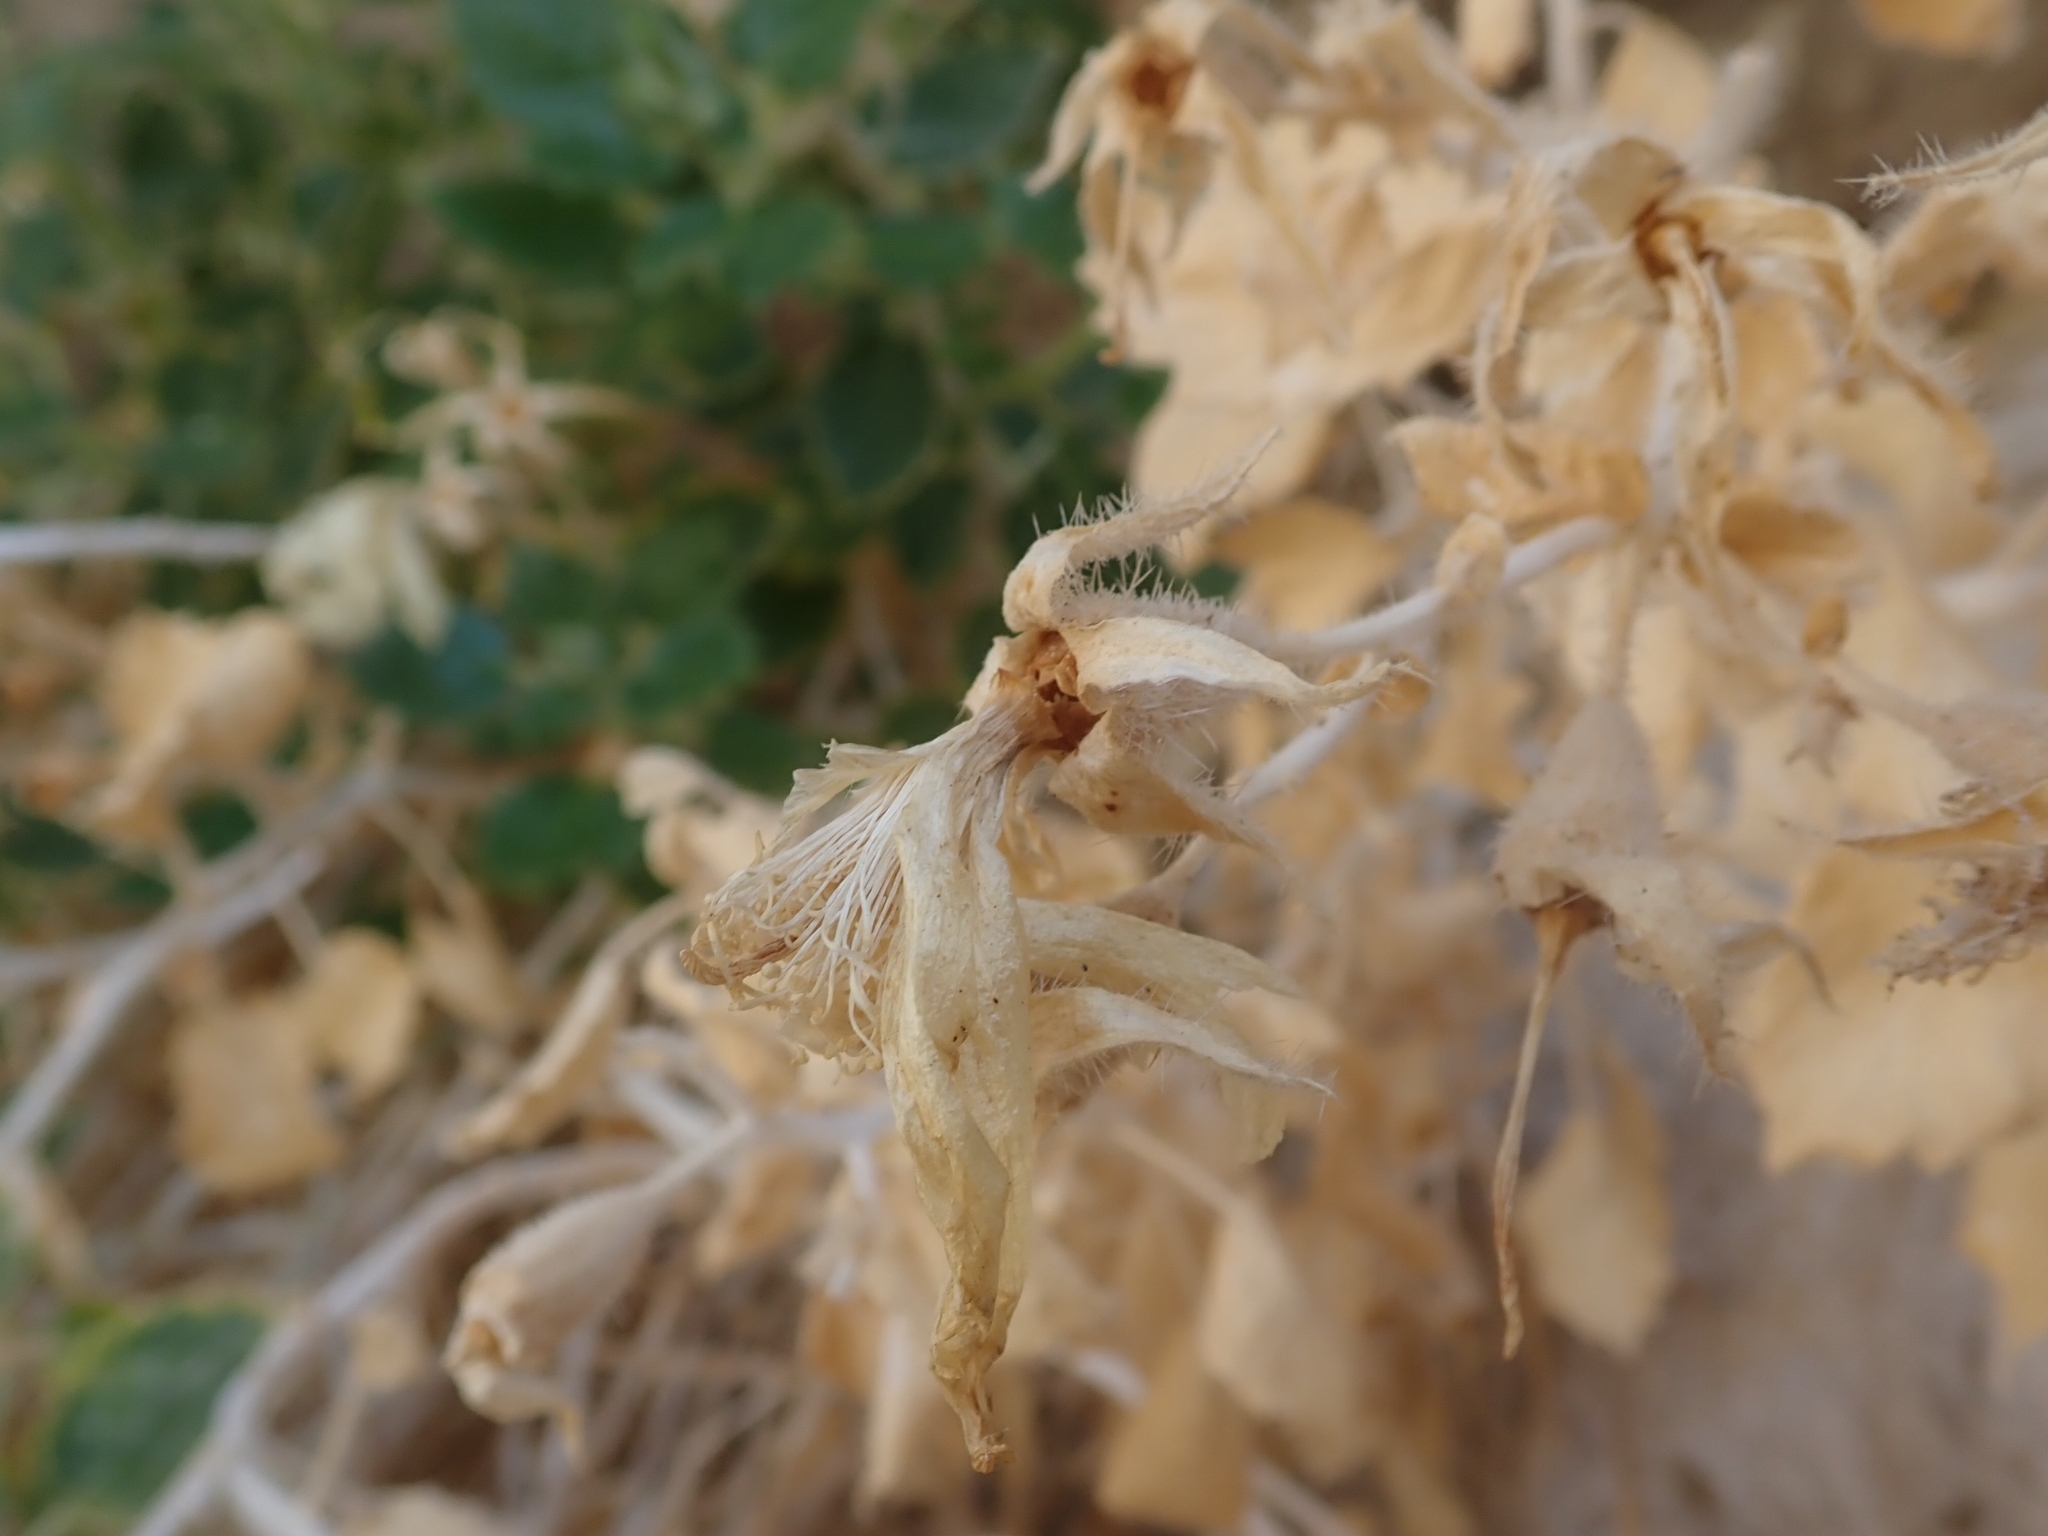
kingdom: Plantae
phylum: Tracheophyta
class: Magnoliopsida
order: Cornales
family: Loasaceae
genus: Eucnide
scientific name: Eucnide urens
